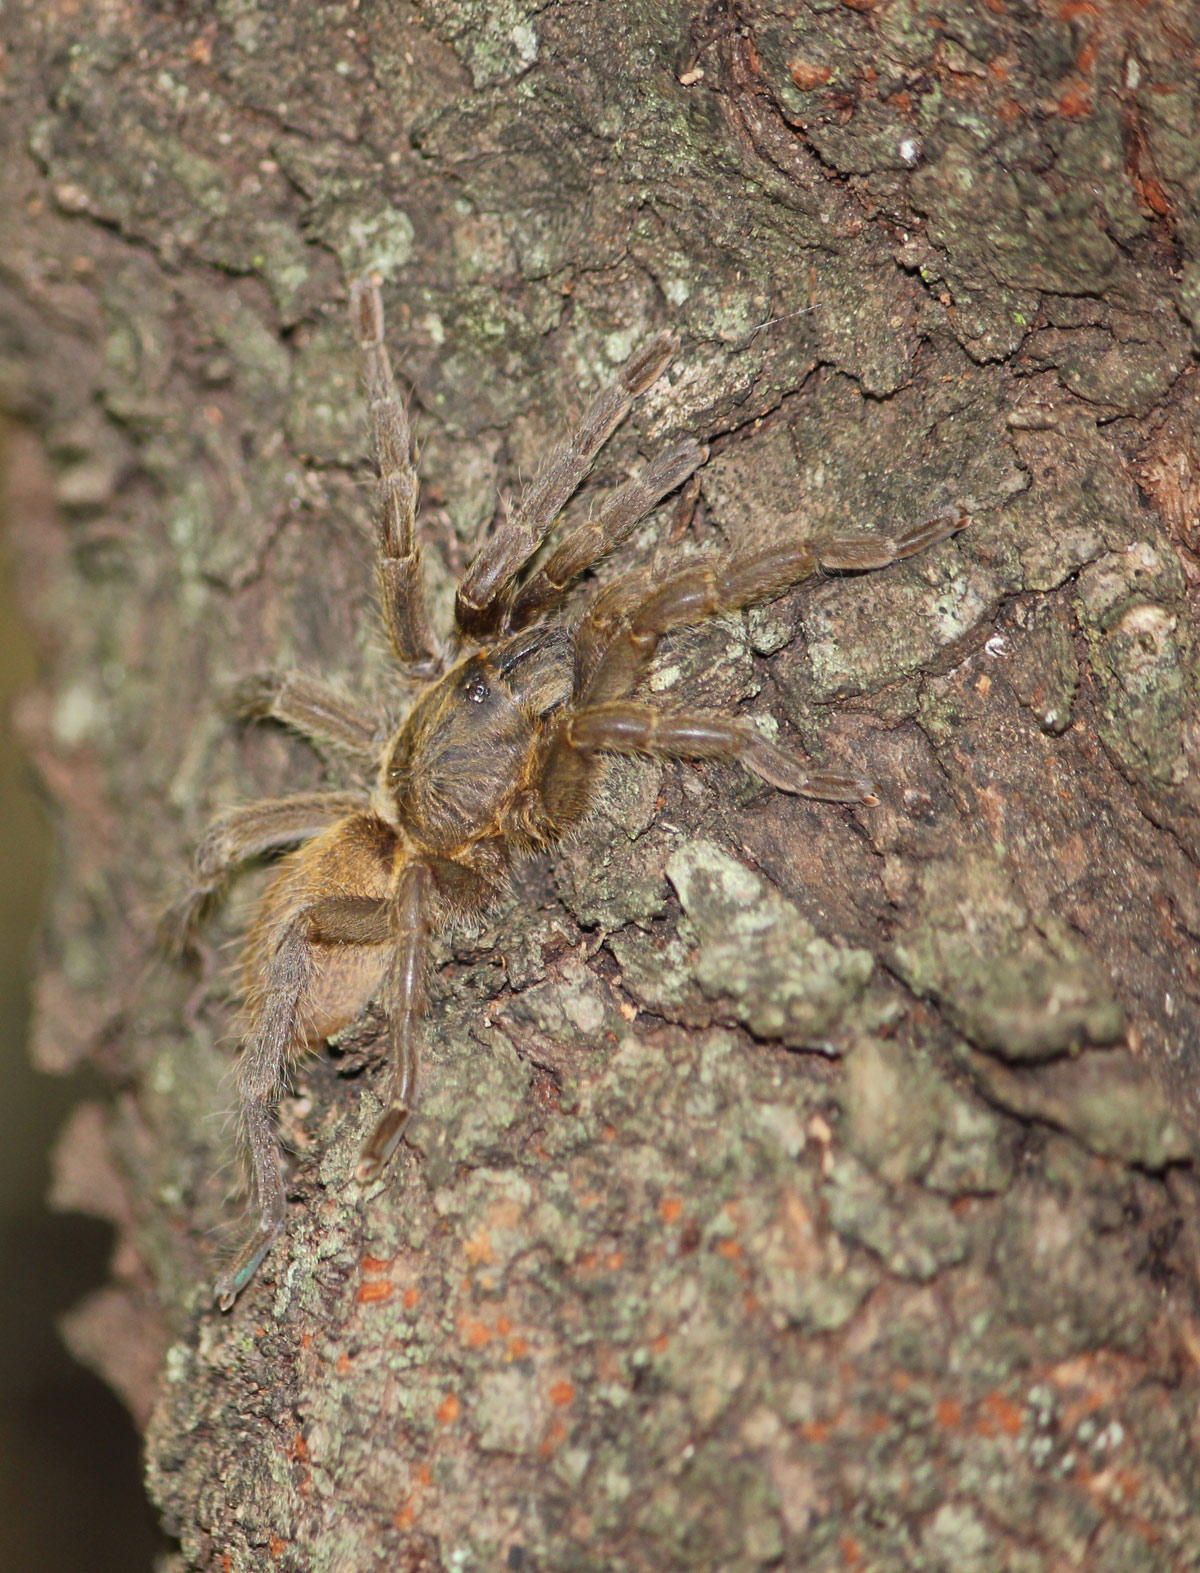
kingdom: Animalia
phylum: Arthropoda
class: Arachnida
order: Araneae
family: Theraphosidae
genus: Harpactirella
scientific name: Harpactirella overdijki
